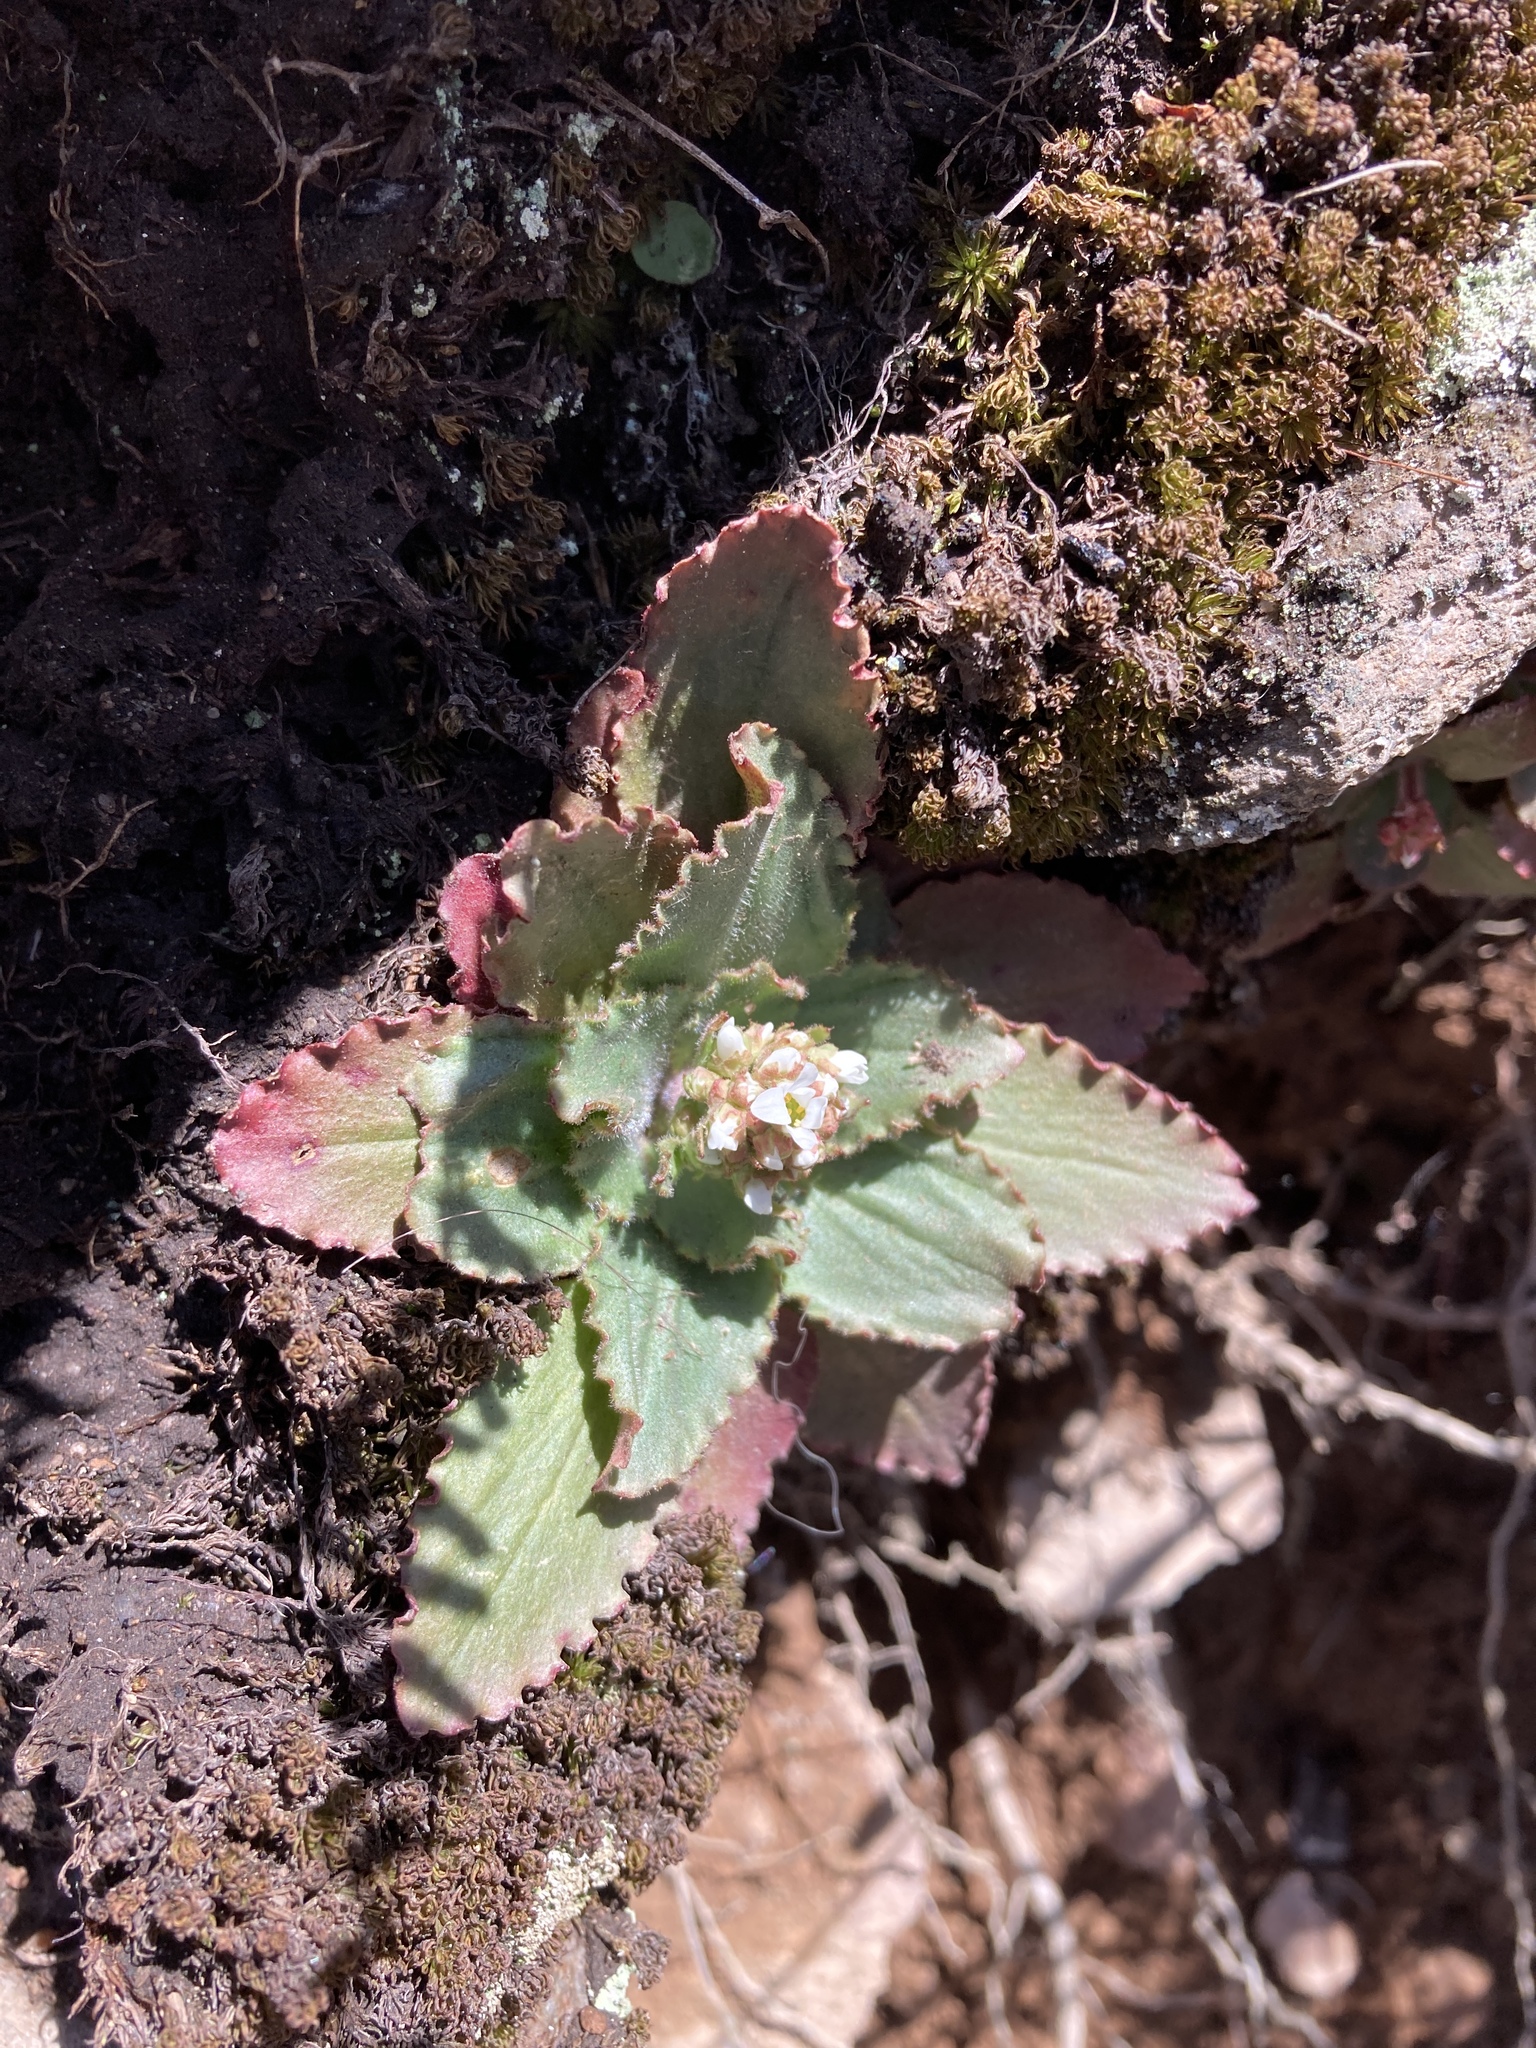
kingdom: Plantae
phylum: Tracheophyta
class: Magnoliopsida
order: Saxifragales
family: Saxifragaceae
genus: Micranthes
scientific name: Micranthes virginiensis
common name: Early saxifrage
